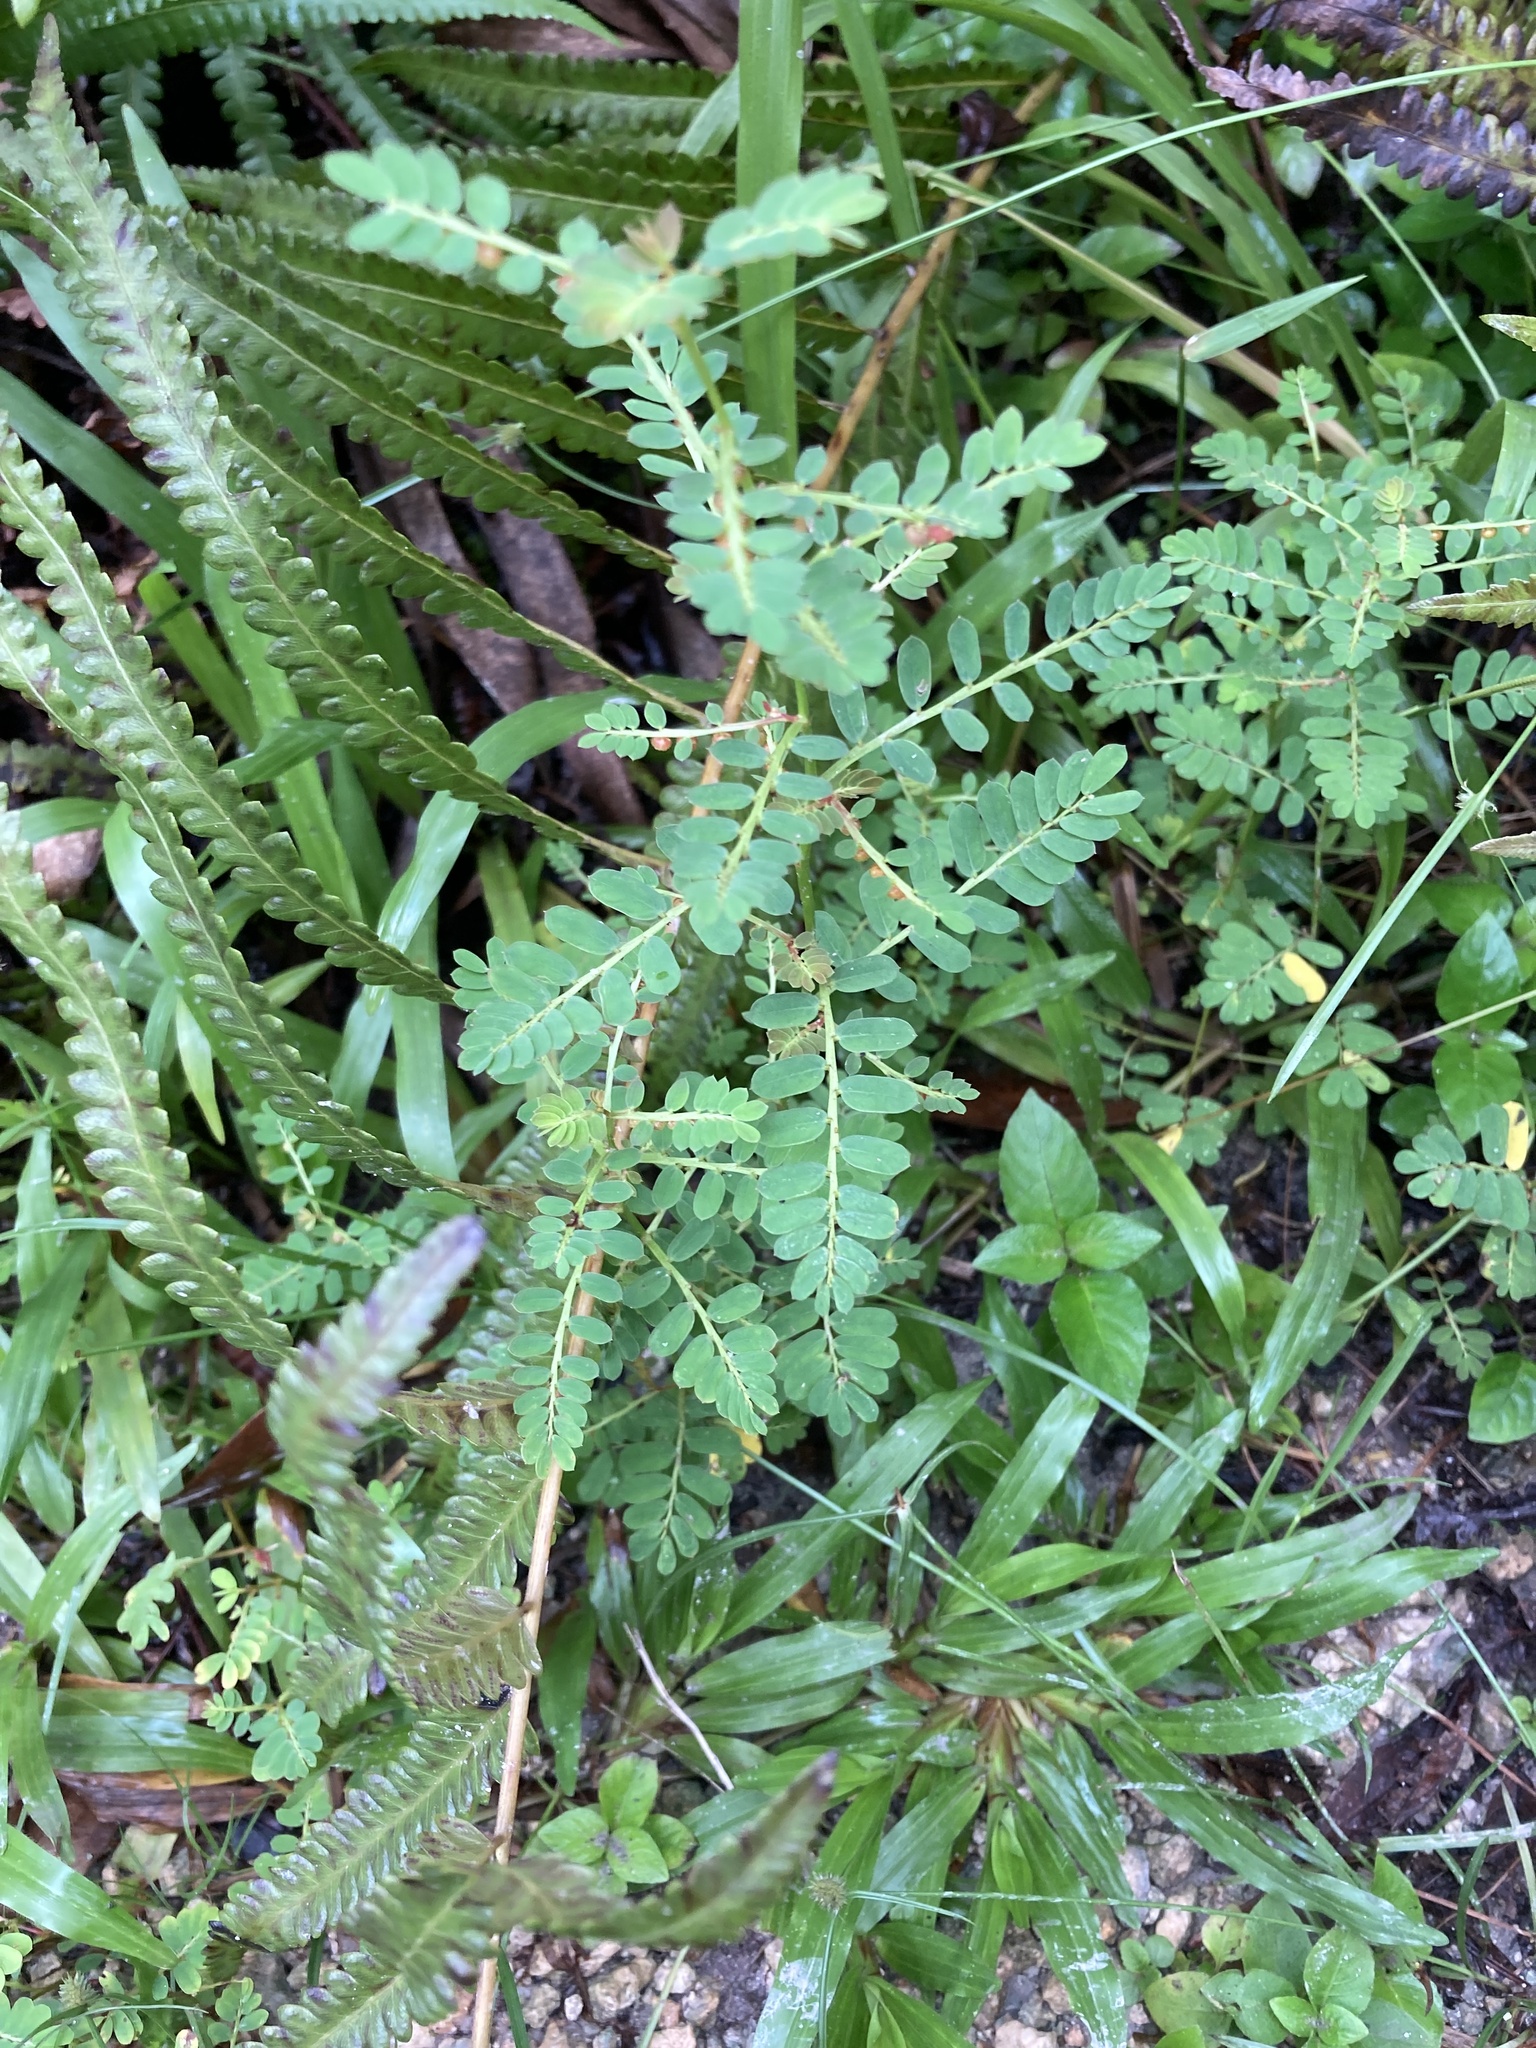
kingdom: Plantae
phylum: Tracheophyta
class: Magnoliopsida
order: Malpighiales
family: Phyllanthaceae
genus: Phyllanthus
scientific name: Phyllanthus urinaria
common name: Chamber bitter
